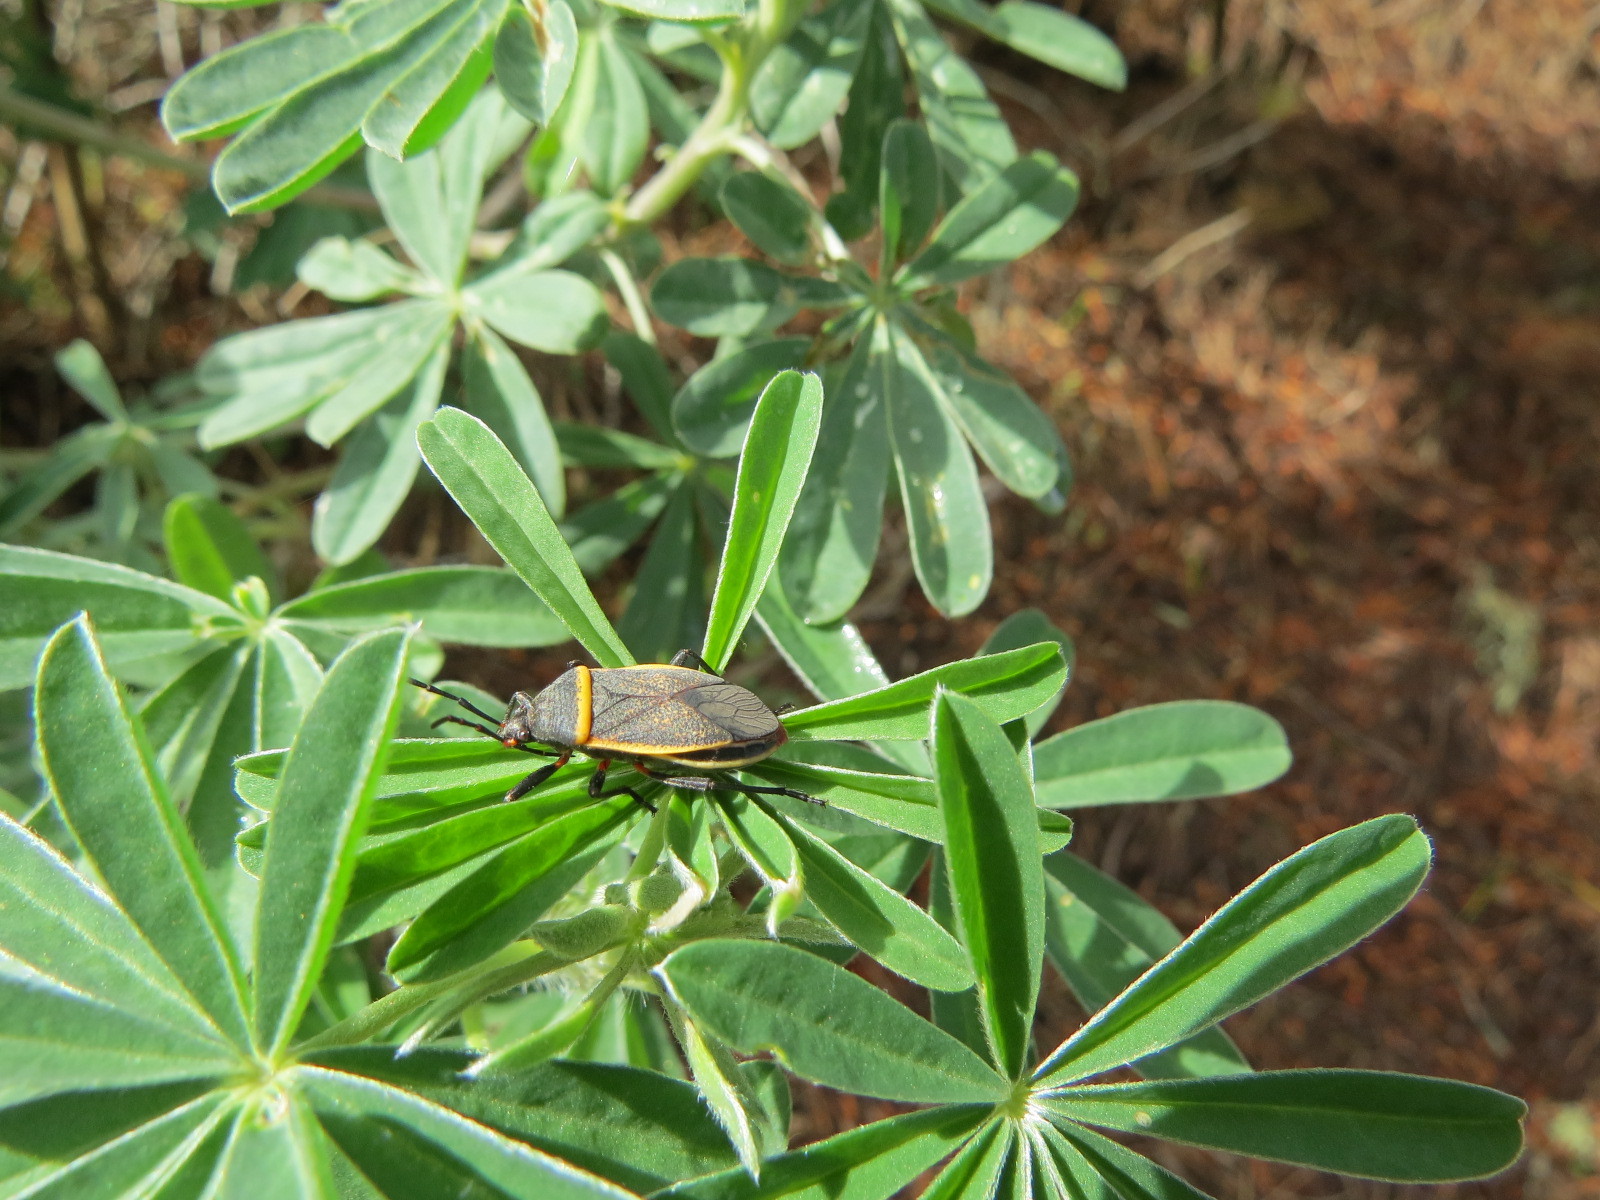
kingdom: Animalia
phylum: Arthropoda
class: Insecta
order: Hemiptera
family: Largidae
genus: Largus
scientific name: Largus californicus
